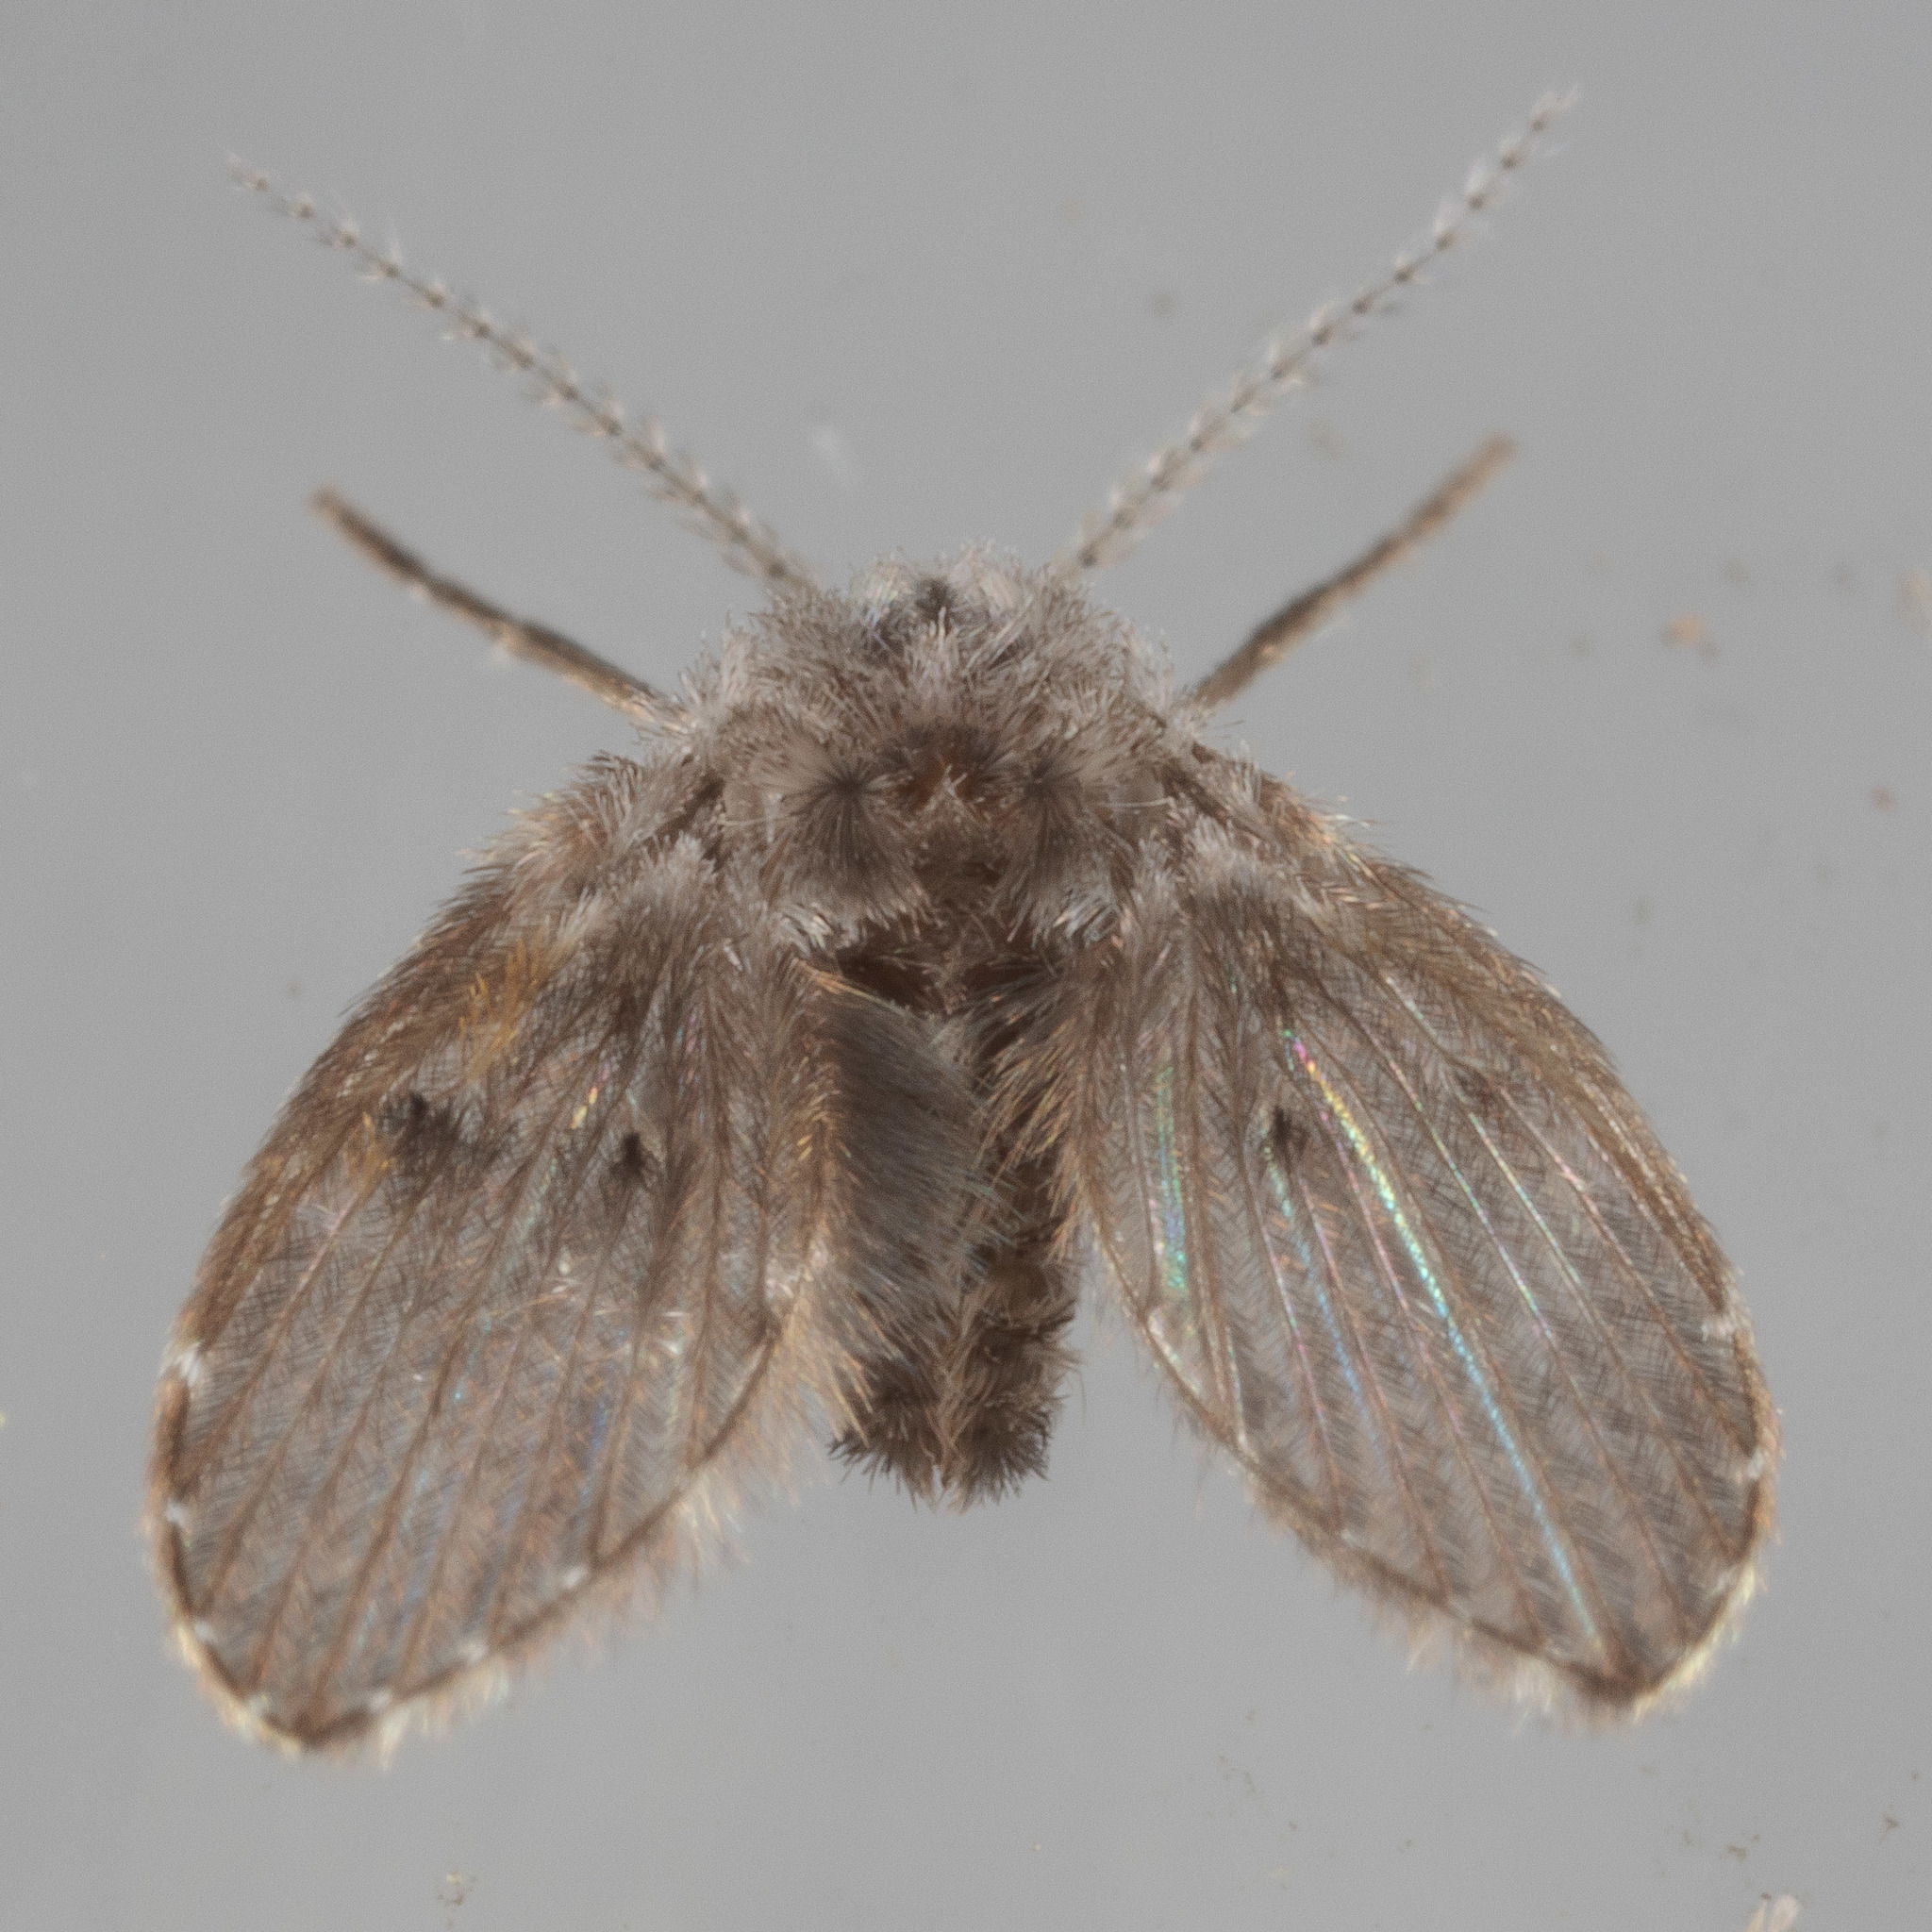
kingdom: Animalia
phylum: Arthropoda
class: Insecta
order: Diptera
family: Psychodidae
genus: Clogmia
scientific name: Clogmia albipunctatus
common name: White-spotted moth fly
